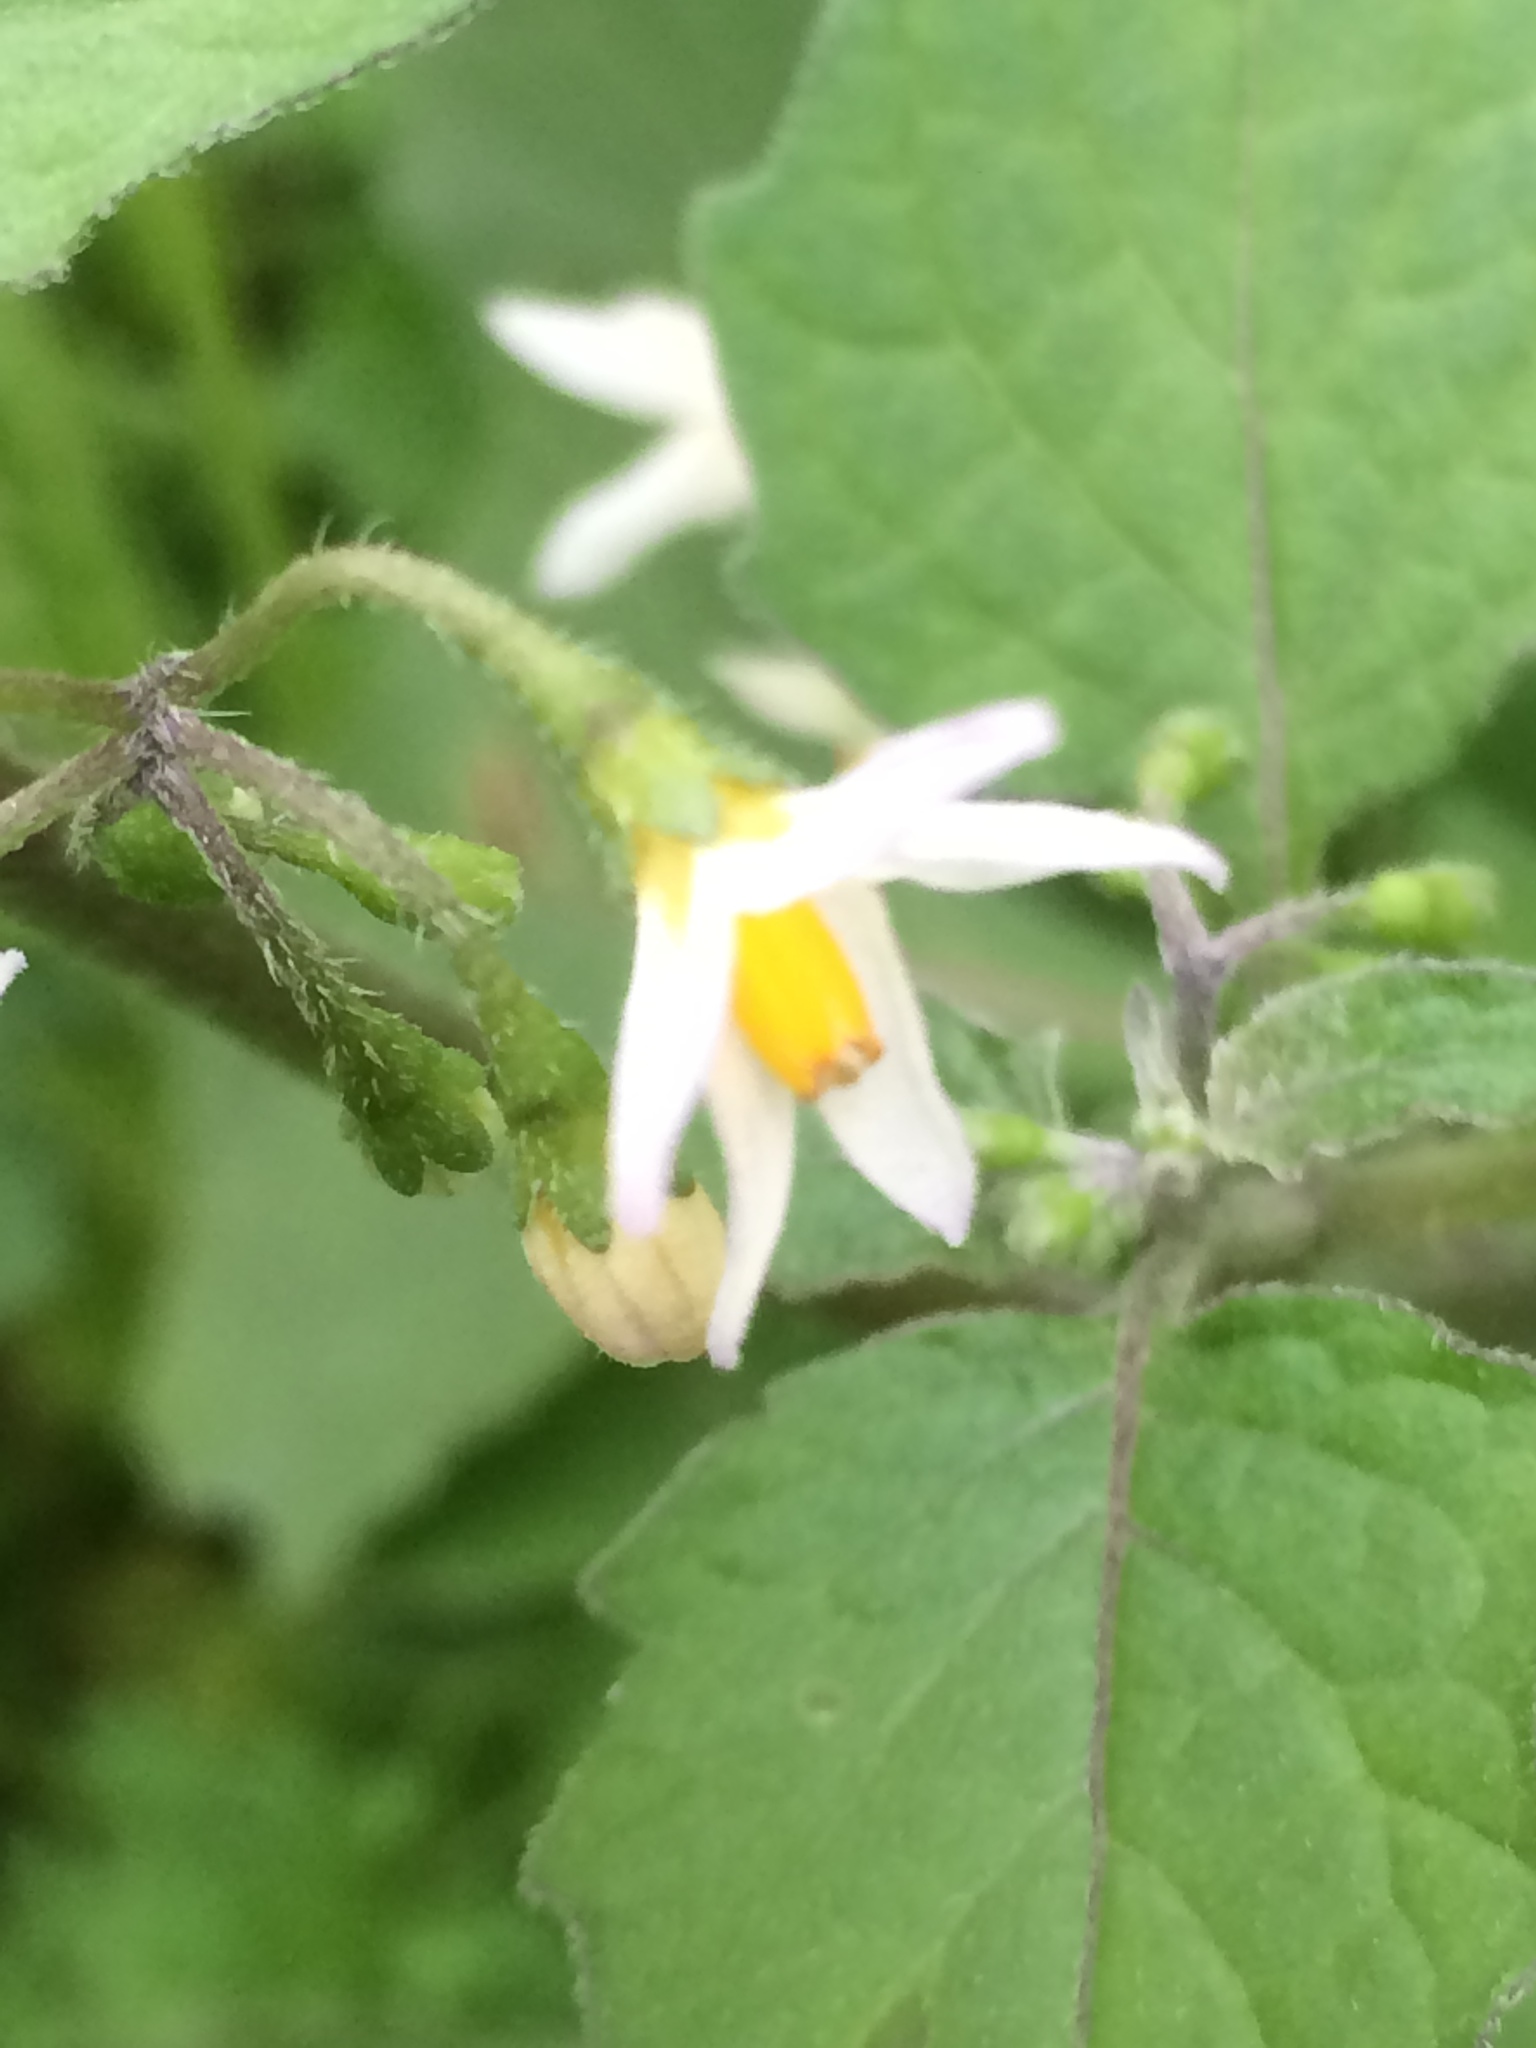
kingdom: Plantae
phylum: Tracheophyta
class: Magnoliopsida
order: Solanales
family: Solanaceae
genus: Solanum
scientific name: Solanum nigrum
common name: Black nightshade
